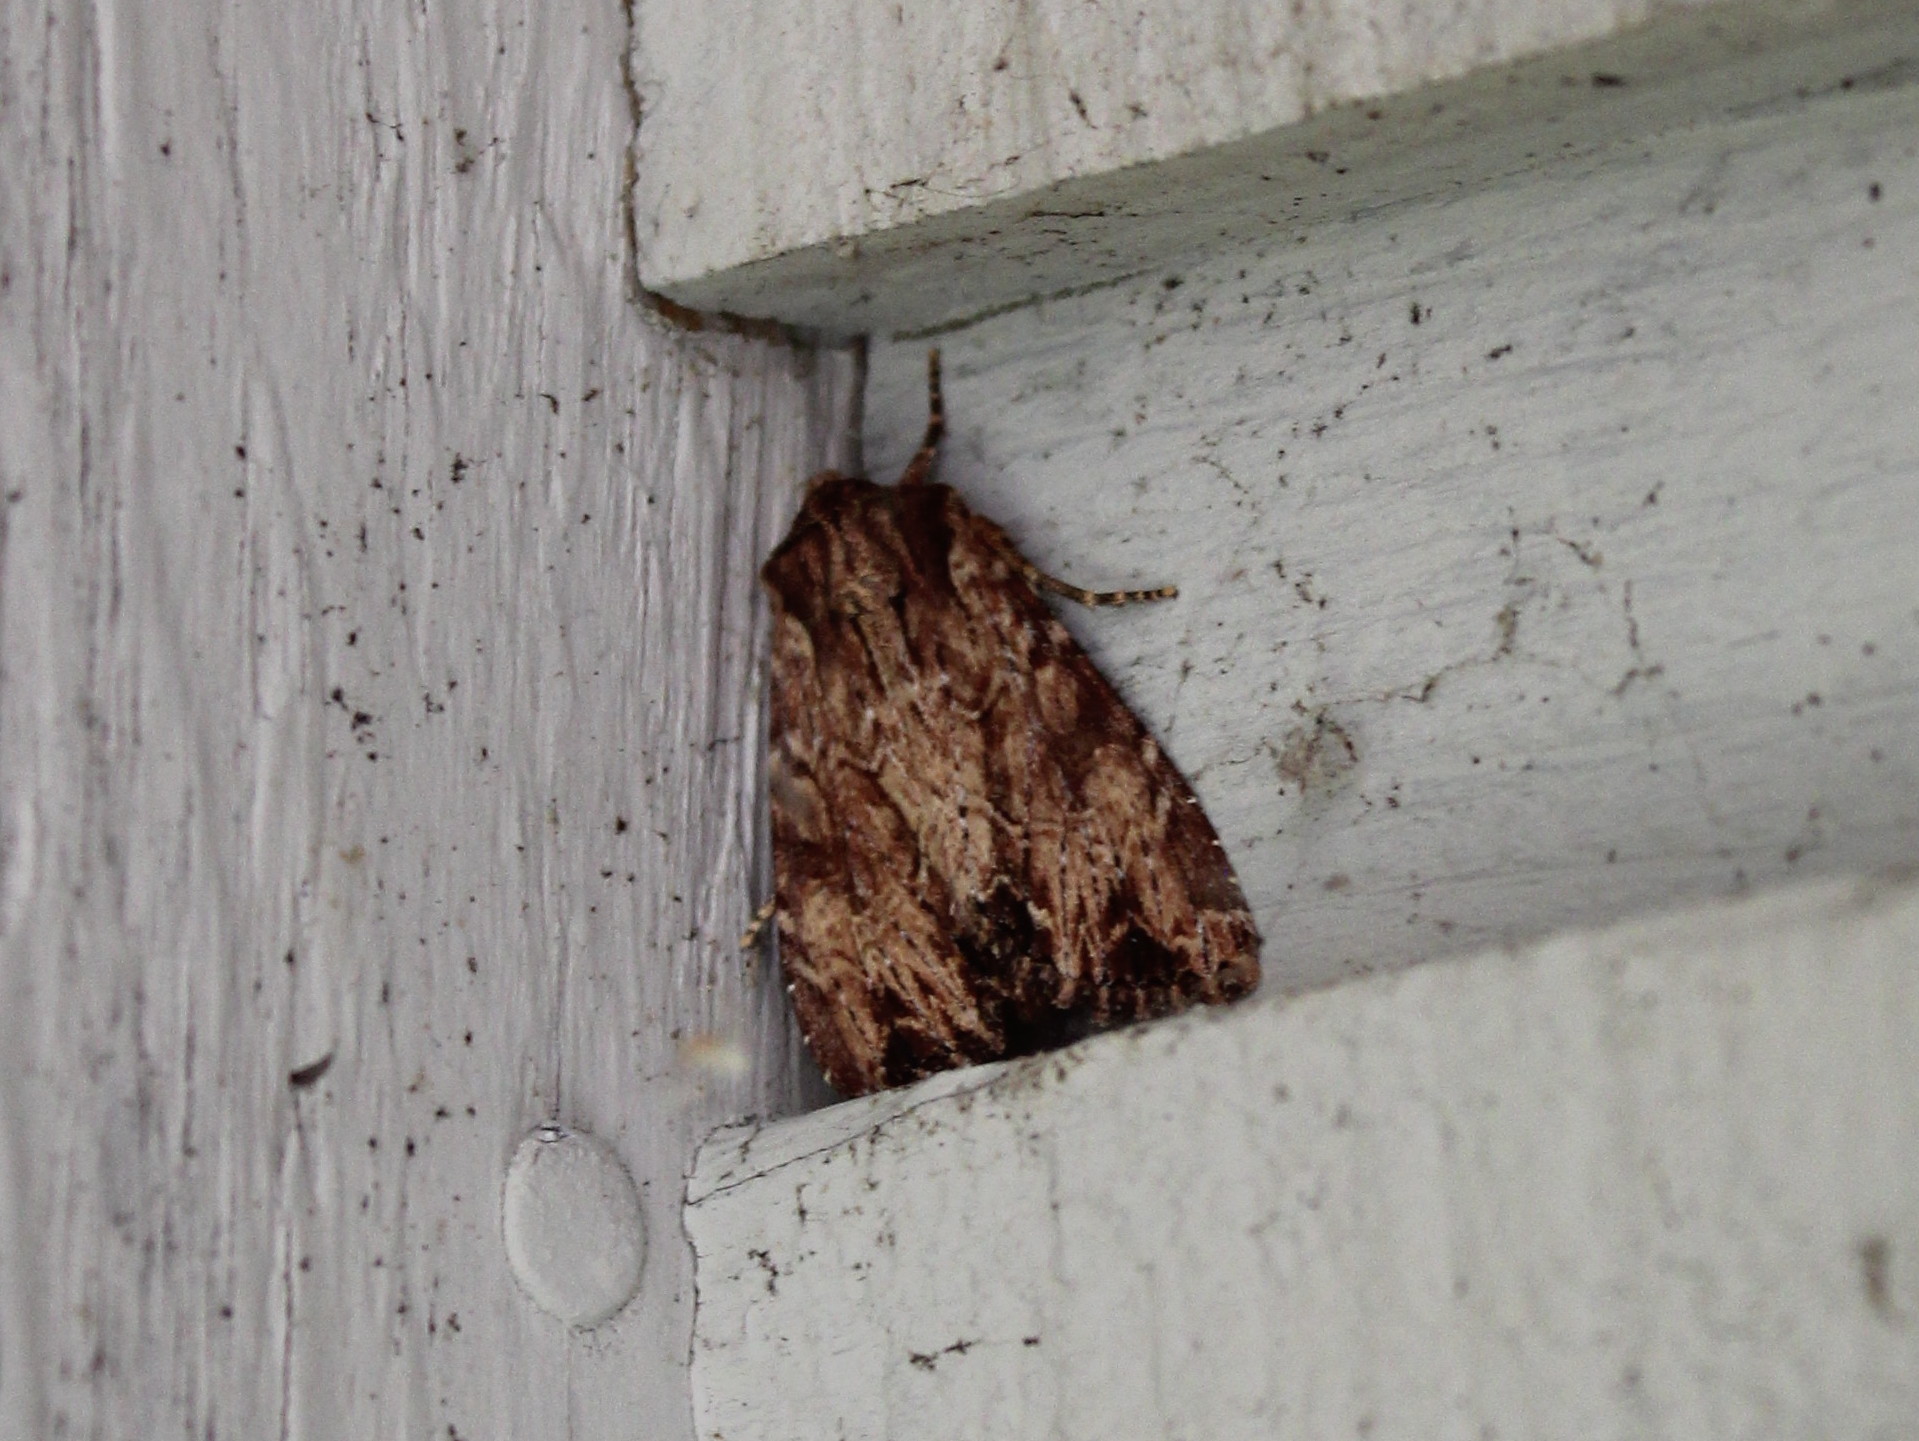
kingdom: Animalia
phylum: Arthropoda
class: Insecta
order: Lepidoptera
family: Noctuidae
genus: Apamea
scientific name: Apamea lignicolora
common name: Wood-colored apamea moth
